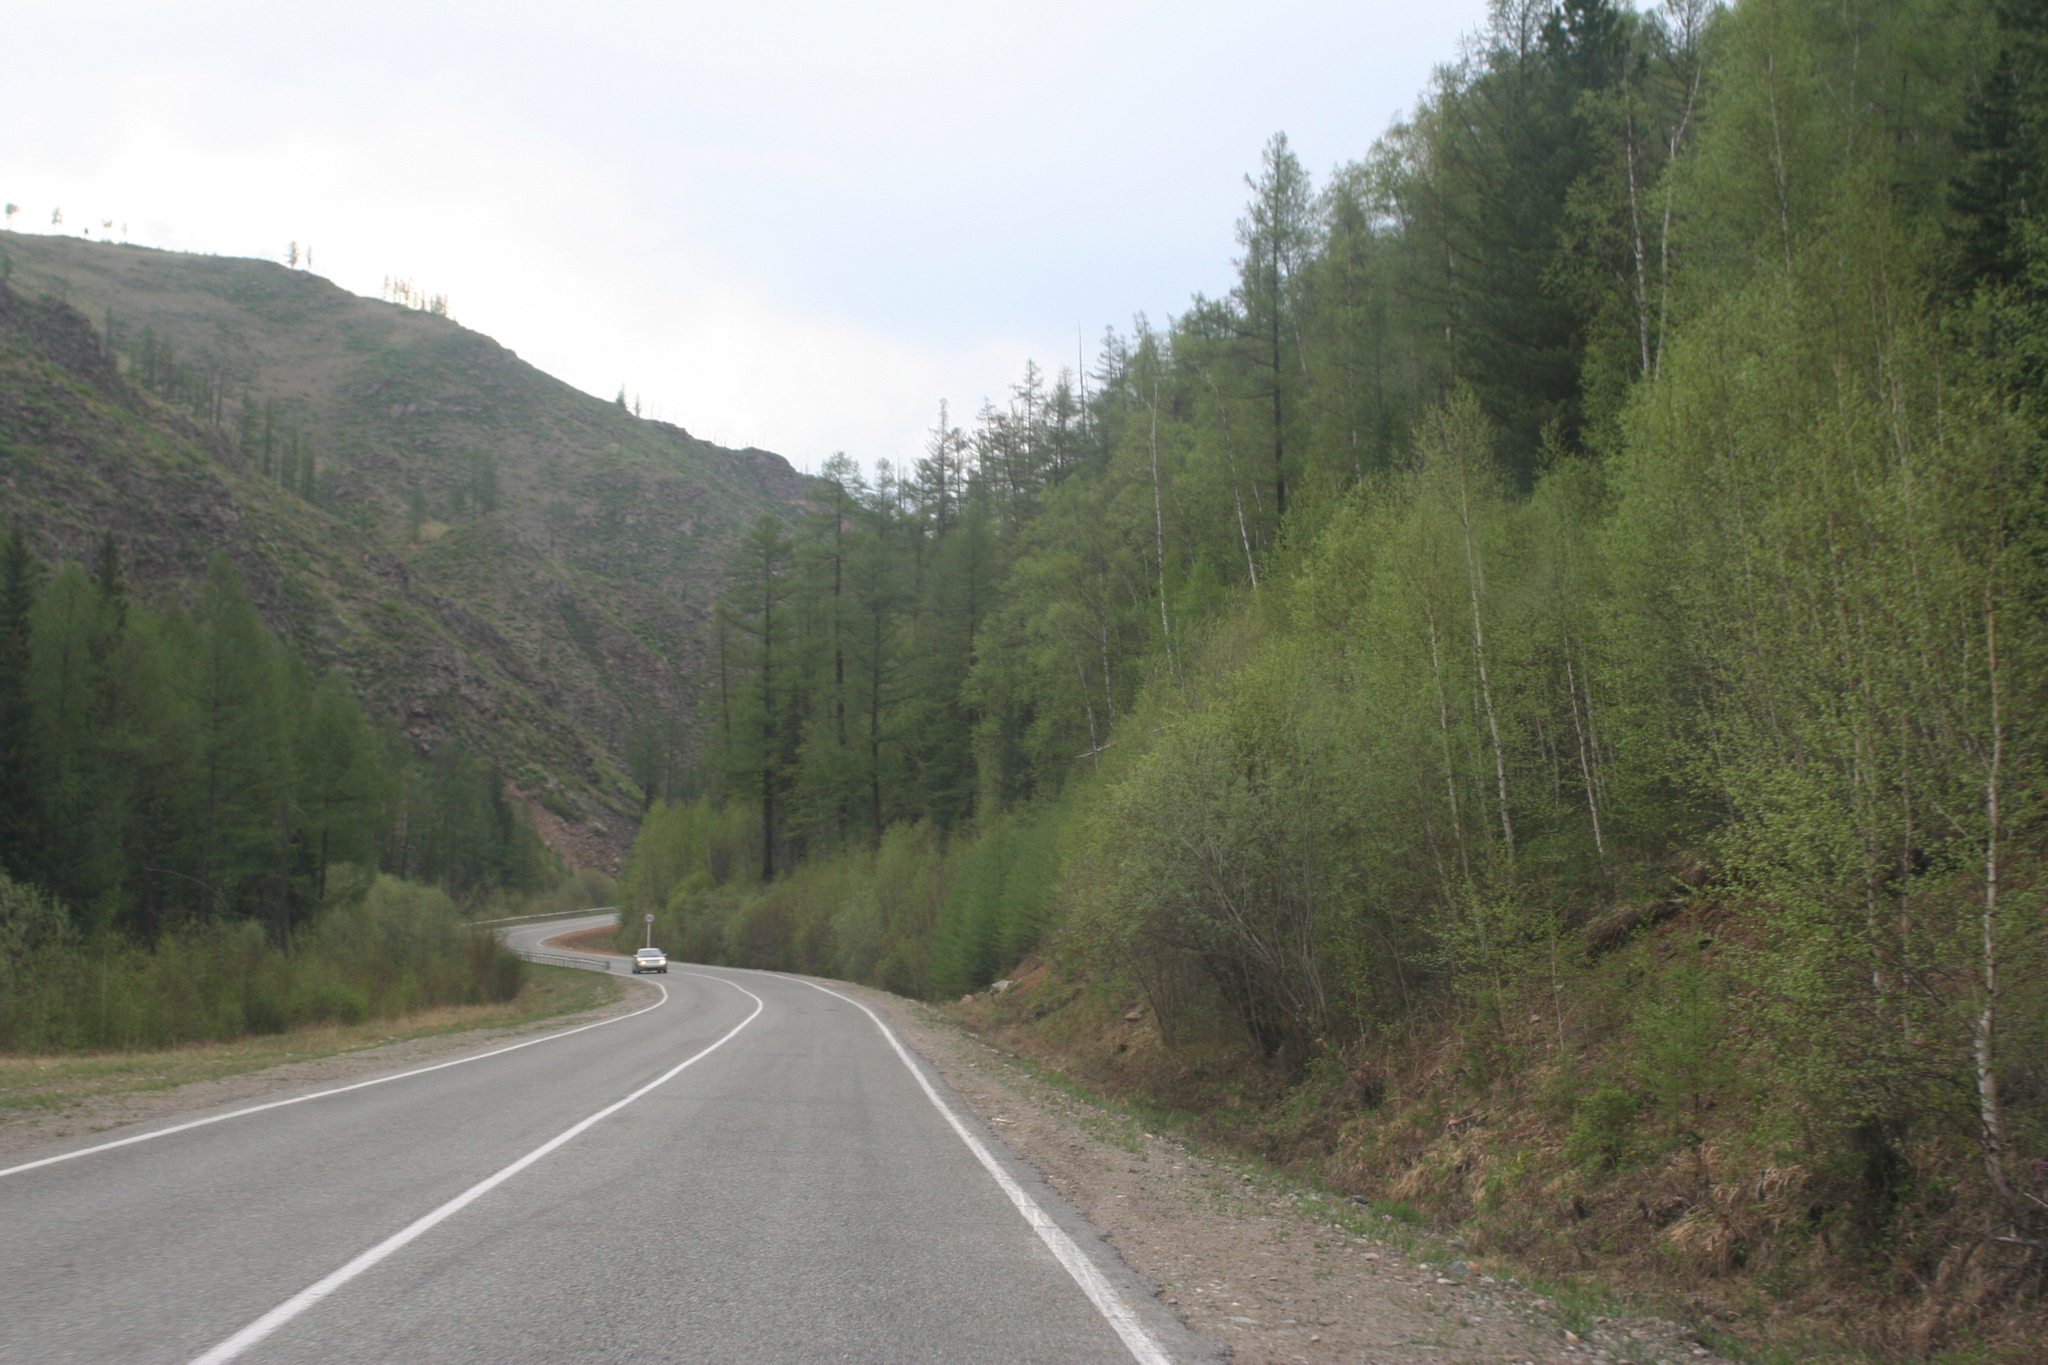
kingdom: Plantae
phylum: Tracheophyta
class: Pinopsida
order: Pinales
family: Pinaceae
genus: Larix
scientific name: Larix sibirica
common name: Siberian larch
